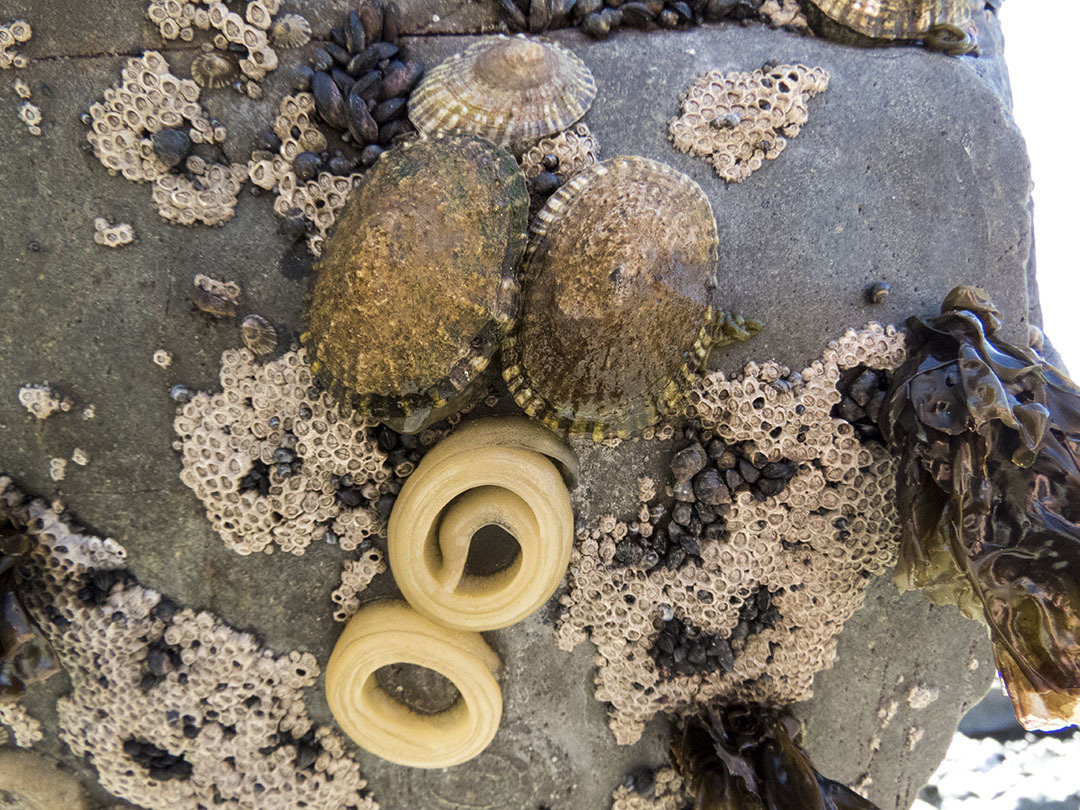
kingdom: Animalia
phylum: Mollusca
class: Gastropoda
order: Siphonariida
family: Siphonariidae
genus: Benhamina
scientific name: Benhamina obliquata
